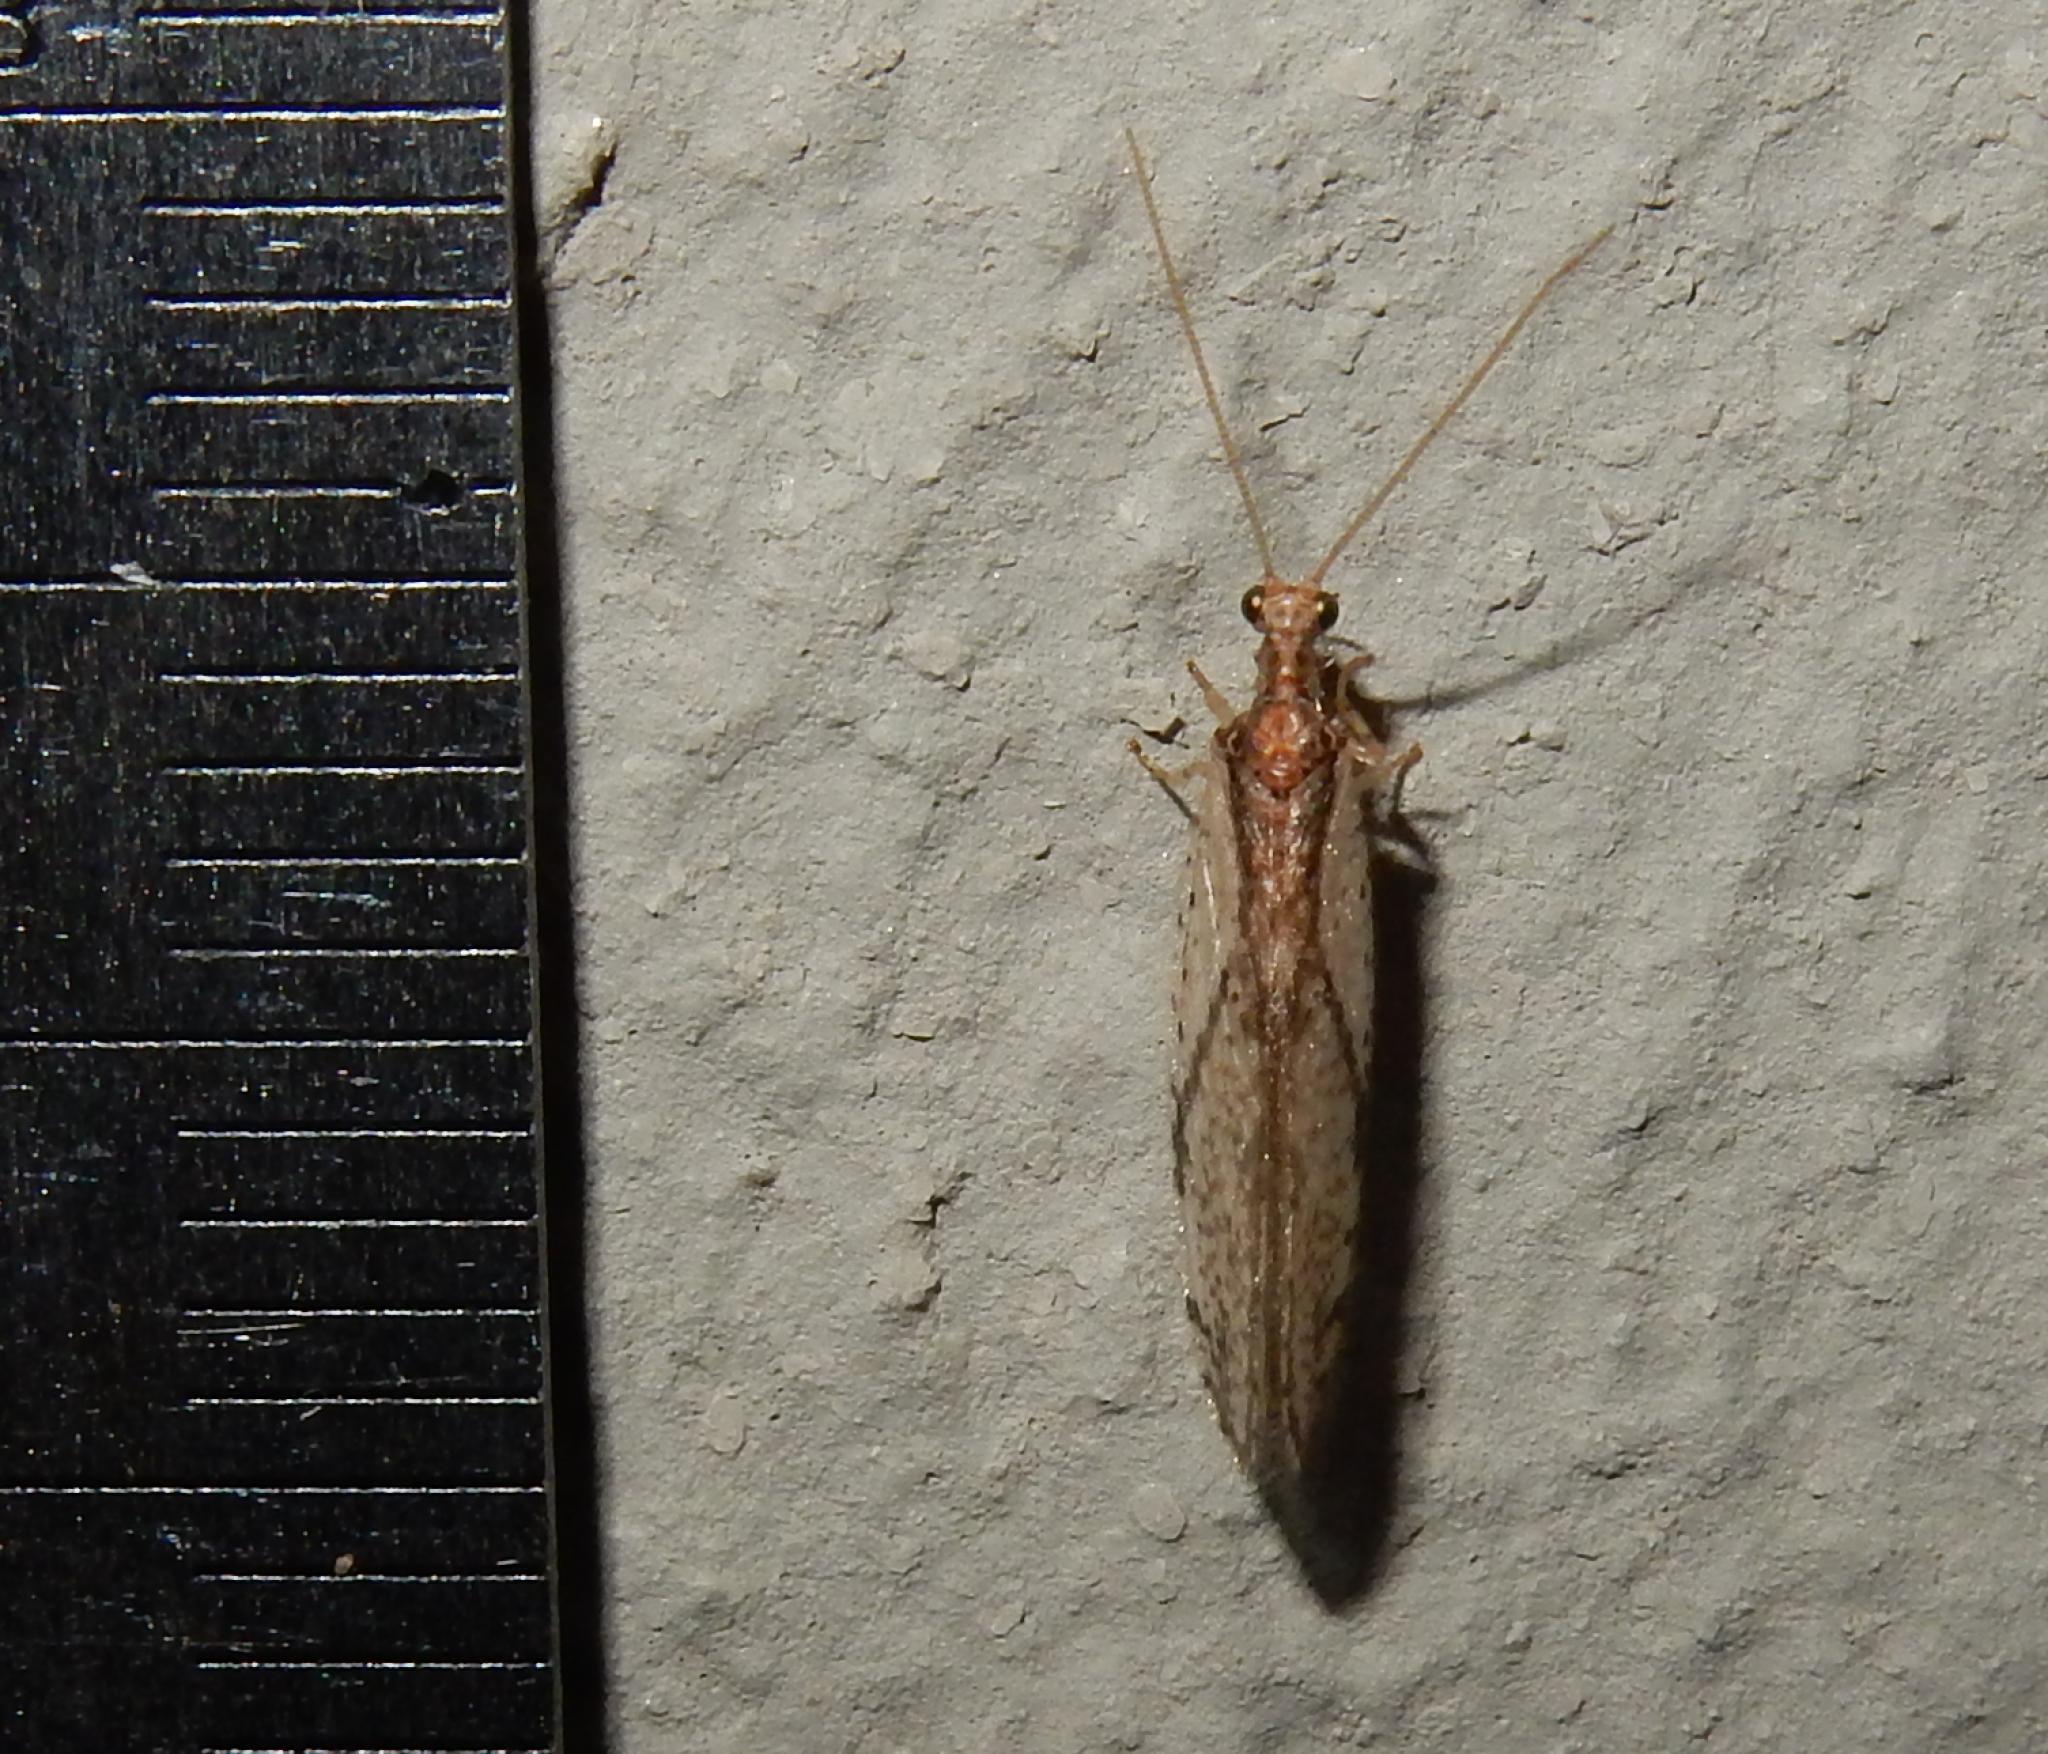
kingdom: Animalia
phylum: Arthropoda
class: Insecta
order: Neuroptera
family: Hemerobiidae
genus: Micromus
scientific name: Micromus sjostedti
